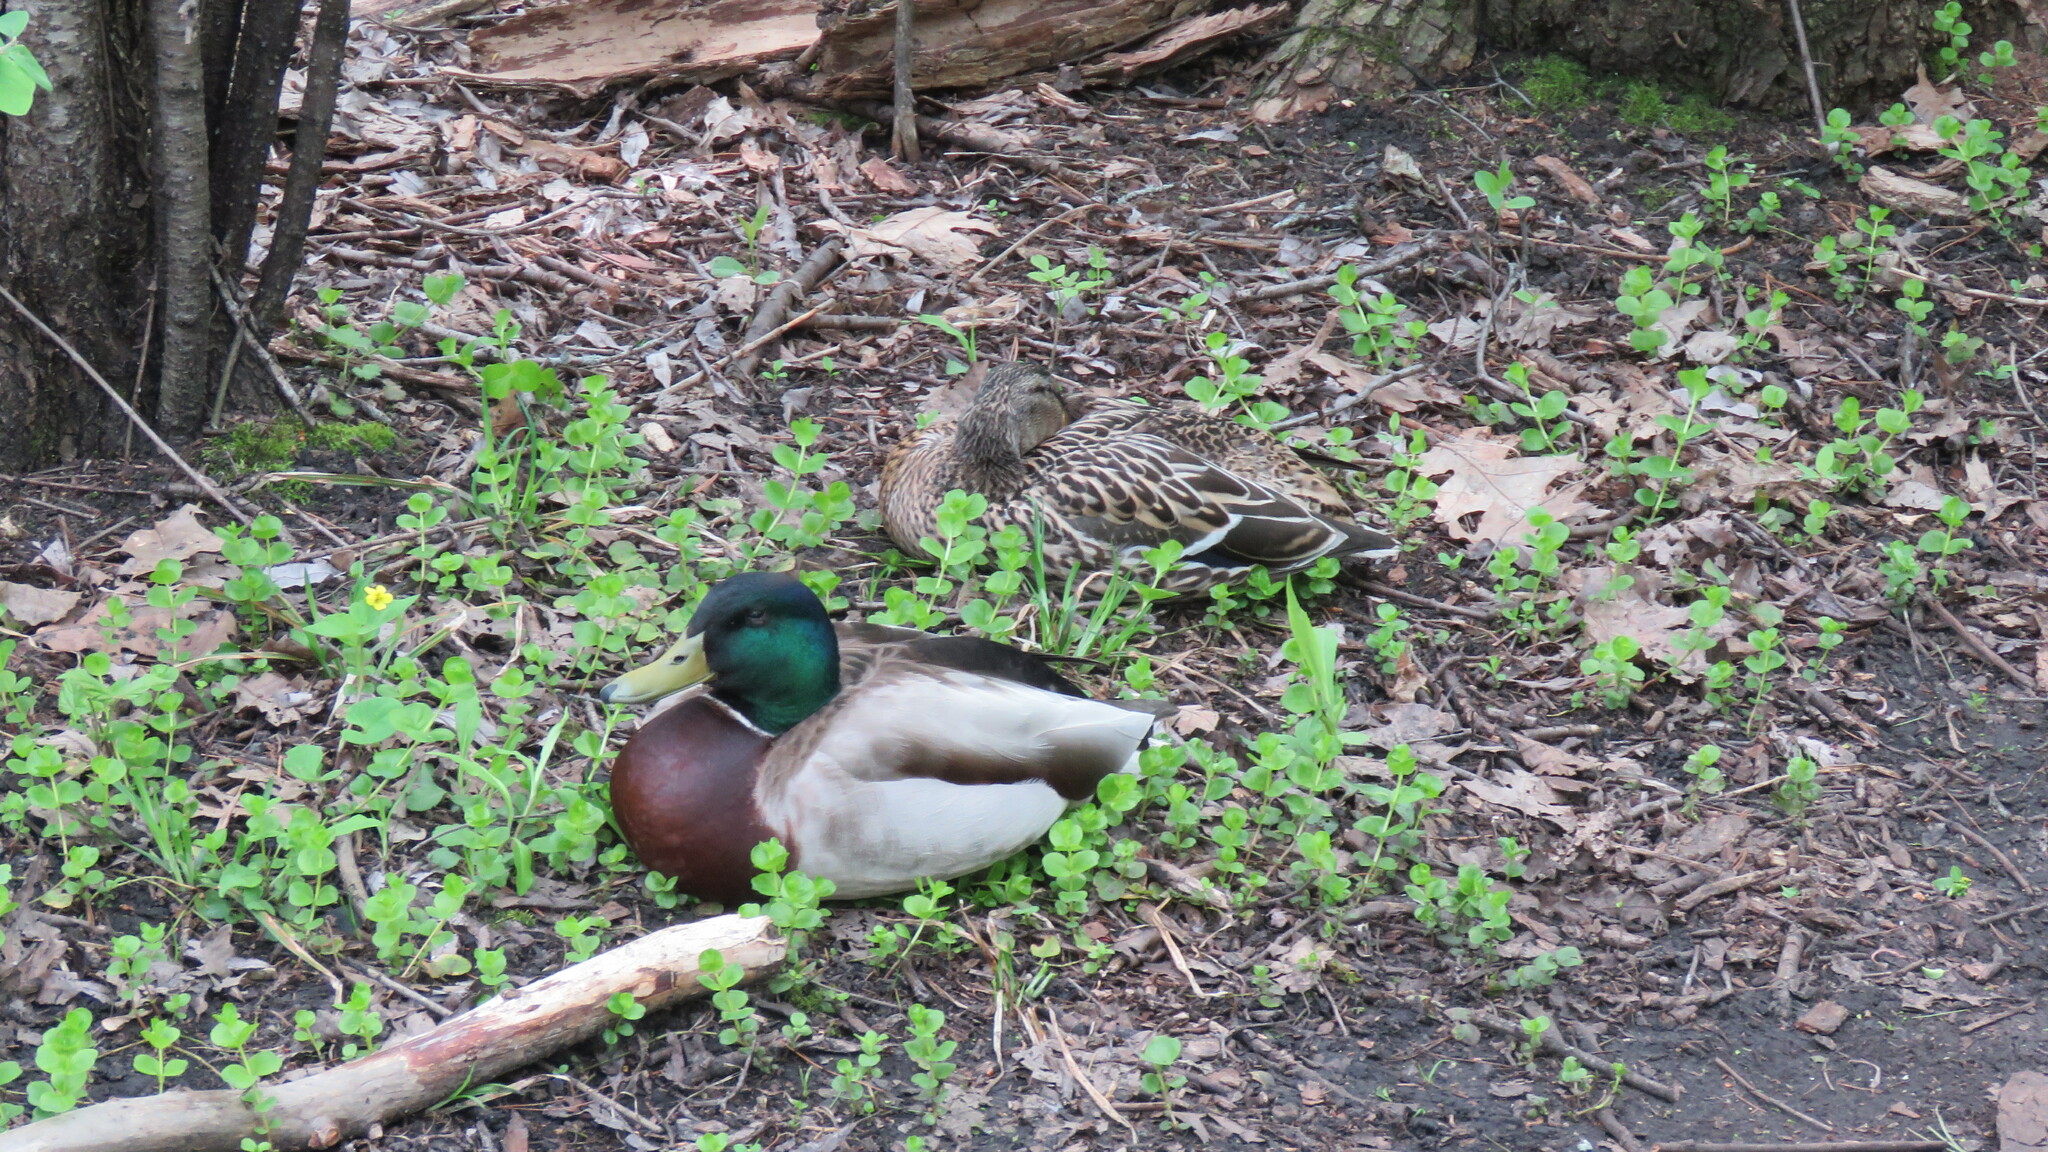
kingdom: Animalia
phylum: Chordata
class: Aves
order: Anseriformes
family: Anatidae
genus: Anas
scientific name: Anas platyrhynchos
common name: Mallard
